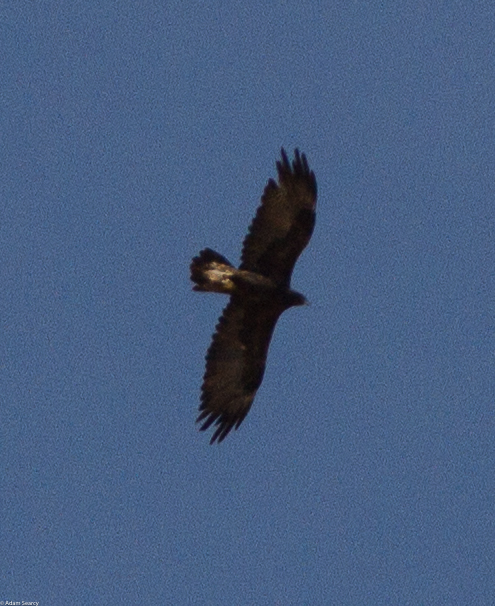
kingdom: Animalia
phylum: Chordata
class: Aves
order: Accipitriformes
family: Accipitridae
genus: Aquila
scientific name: Aquila chrysaetos
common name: Golden eagle
